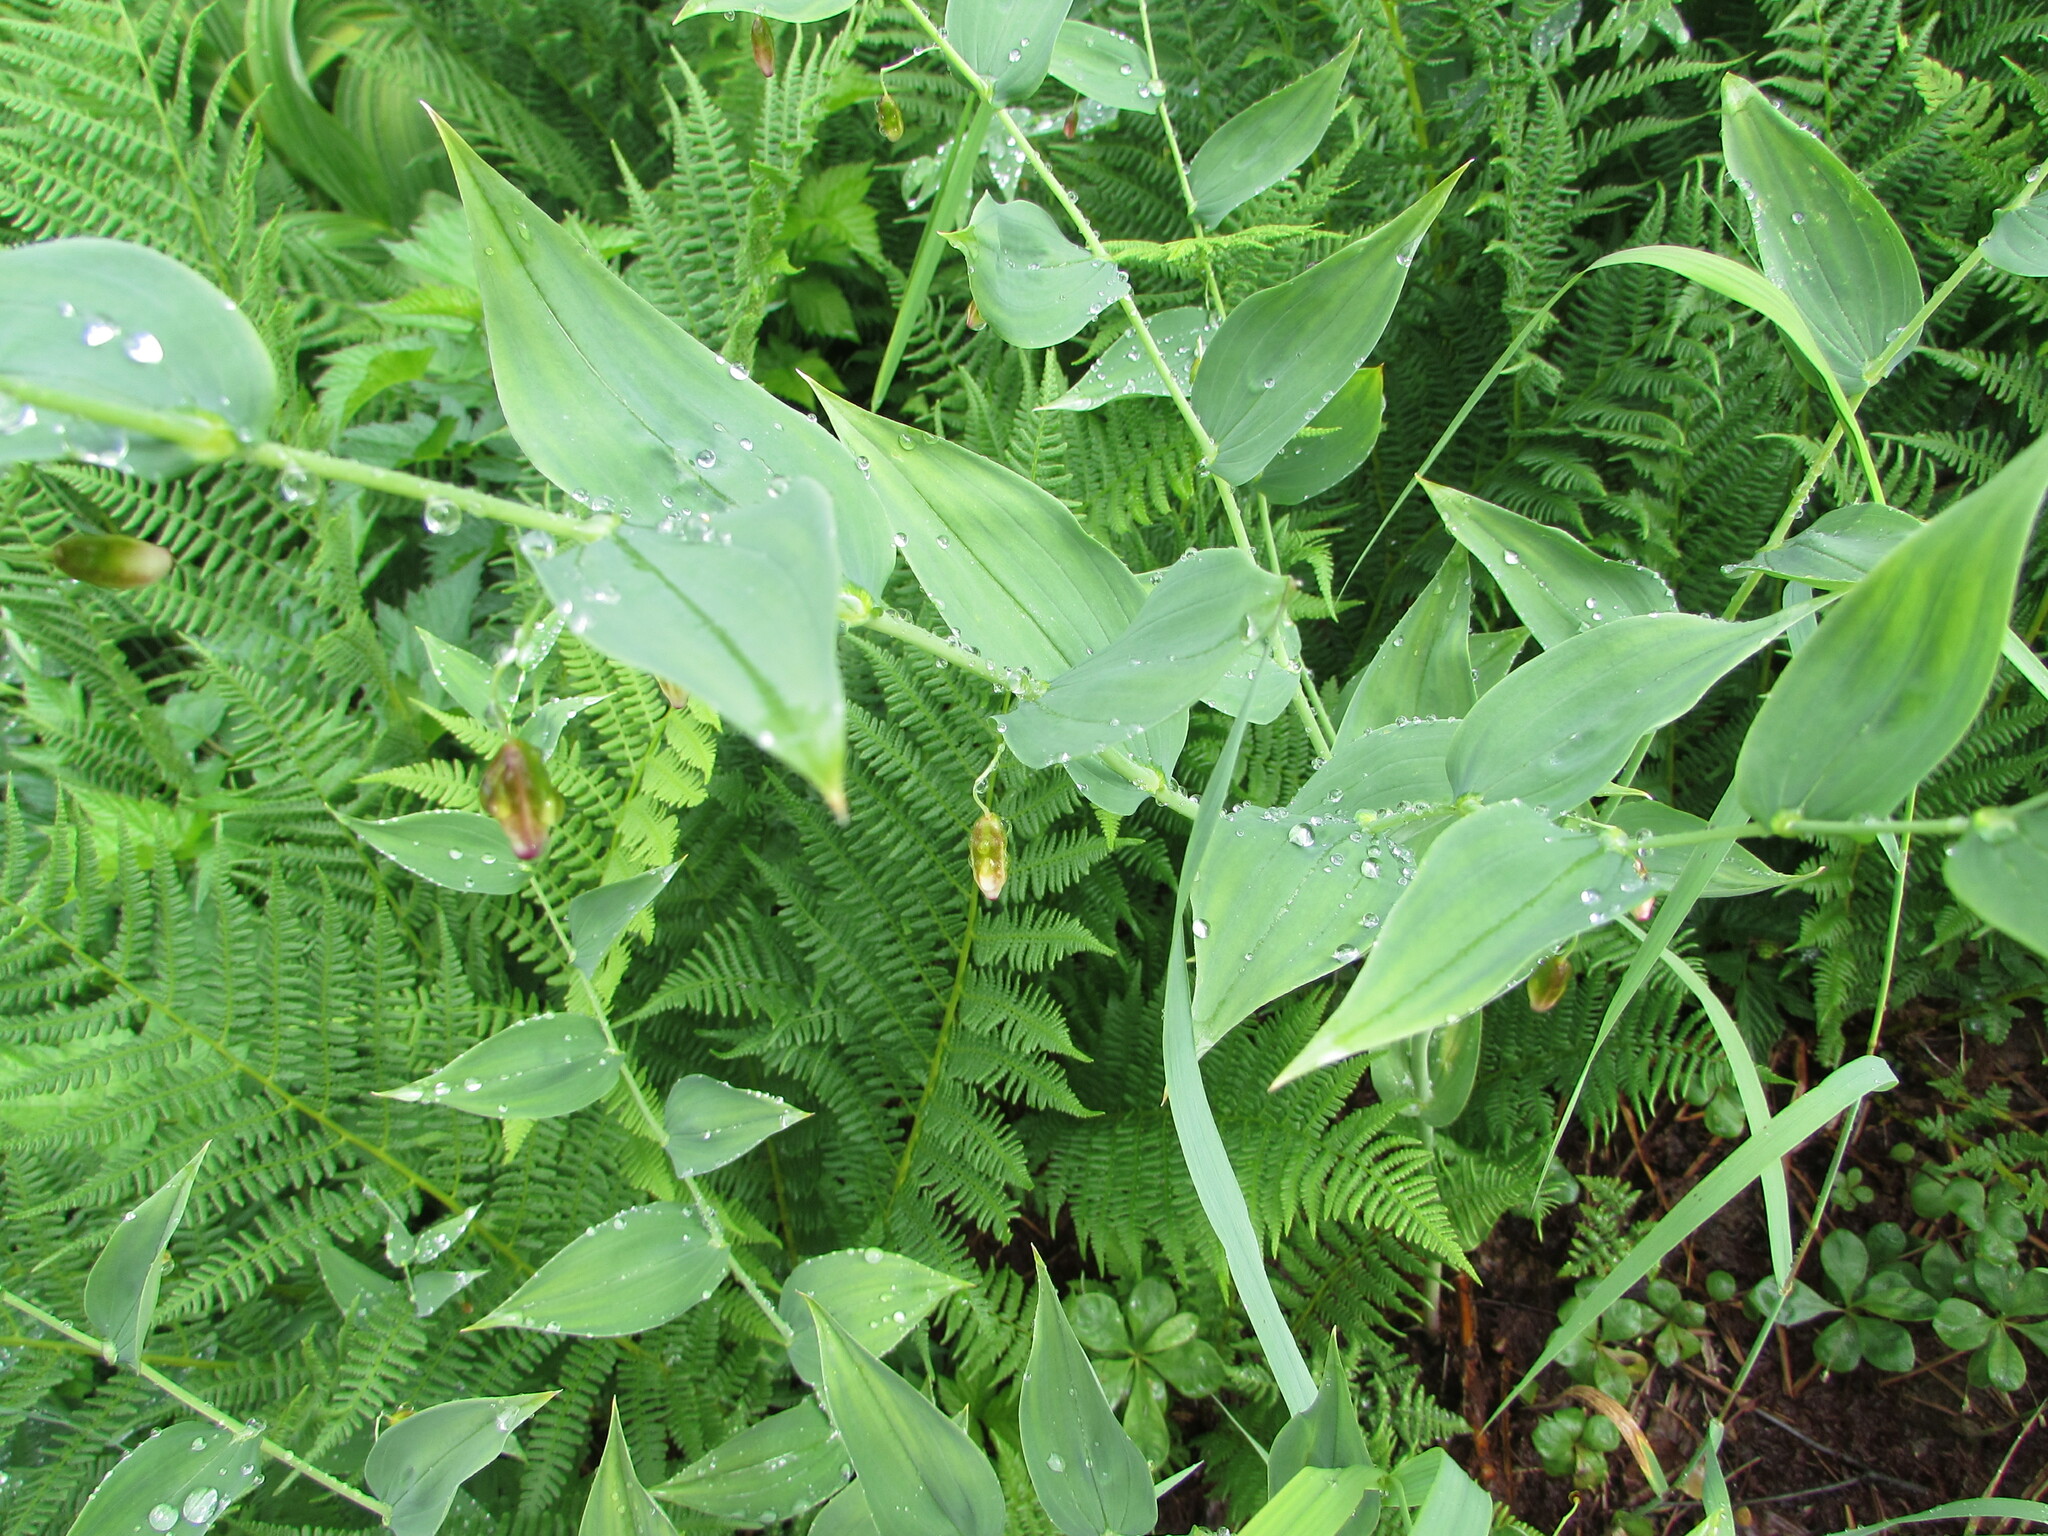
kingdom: Plantae
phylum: Tracheophyta
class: Liliopsida
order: Liliales
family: Liliaceae
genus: Streptopus
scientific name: Streptopus amplexifolius
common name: Clasp twisted stalk
